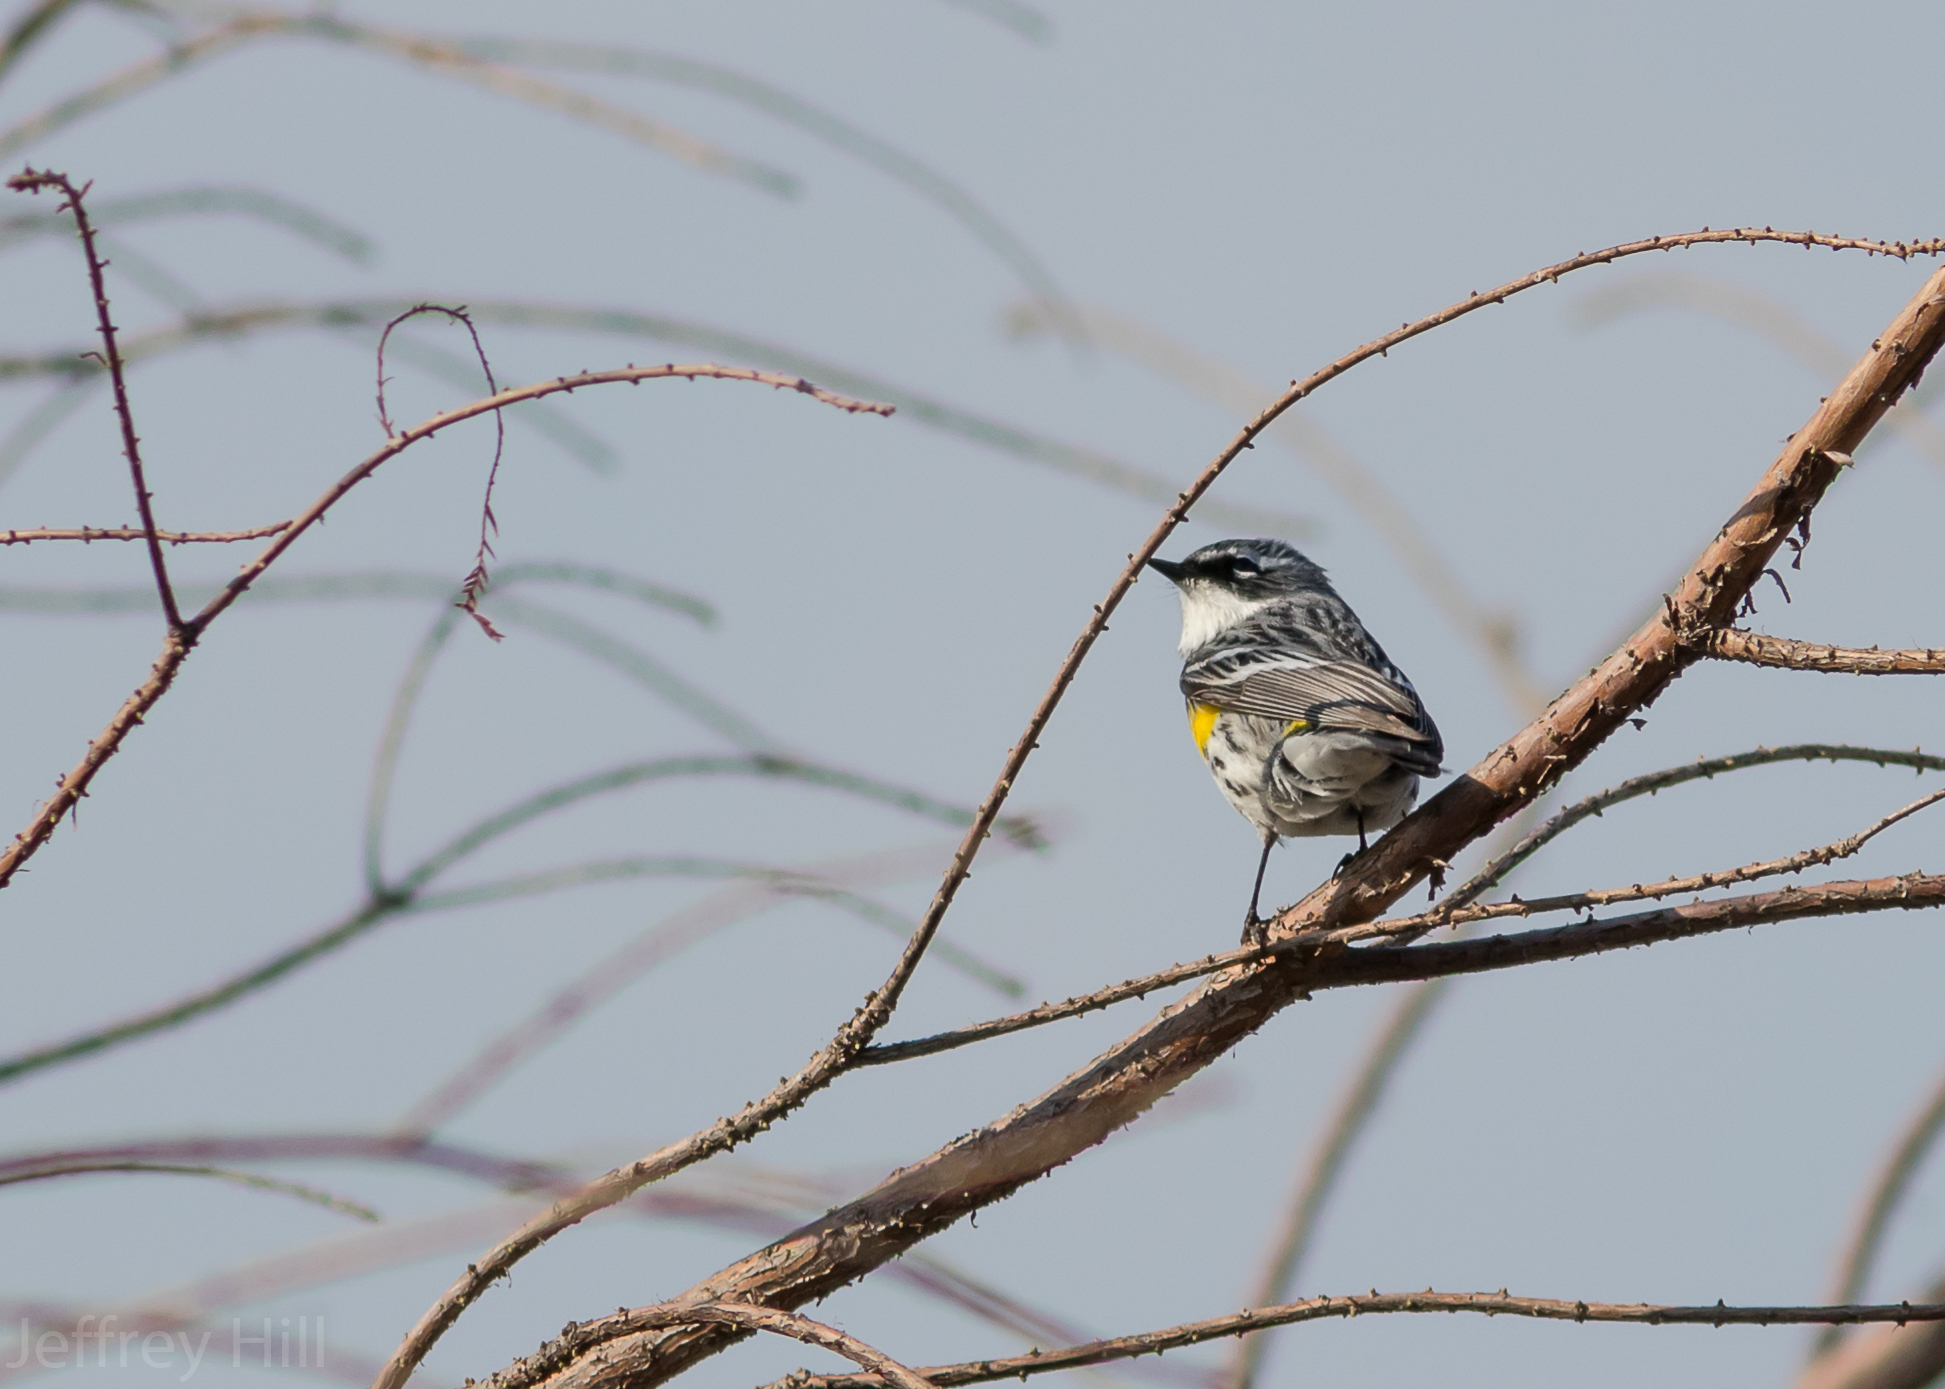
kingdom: Animalia
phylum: Chordata
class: Aves
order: Passeriformes
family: Parulidae
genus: Setophaga
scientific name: Setophaga coronata
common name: Myrtle warbler
